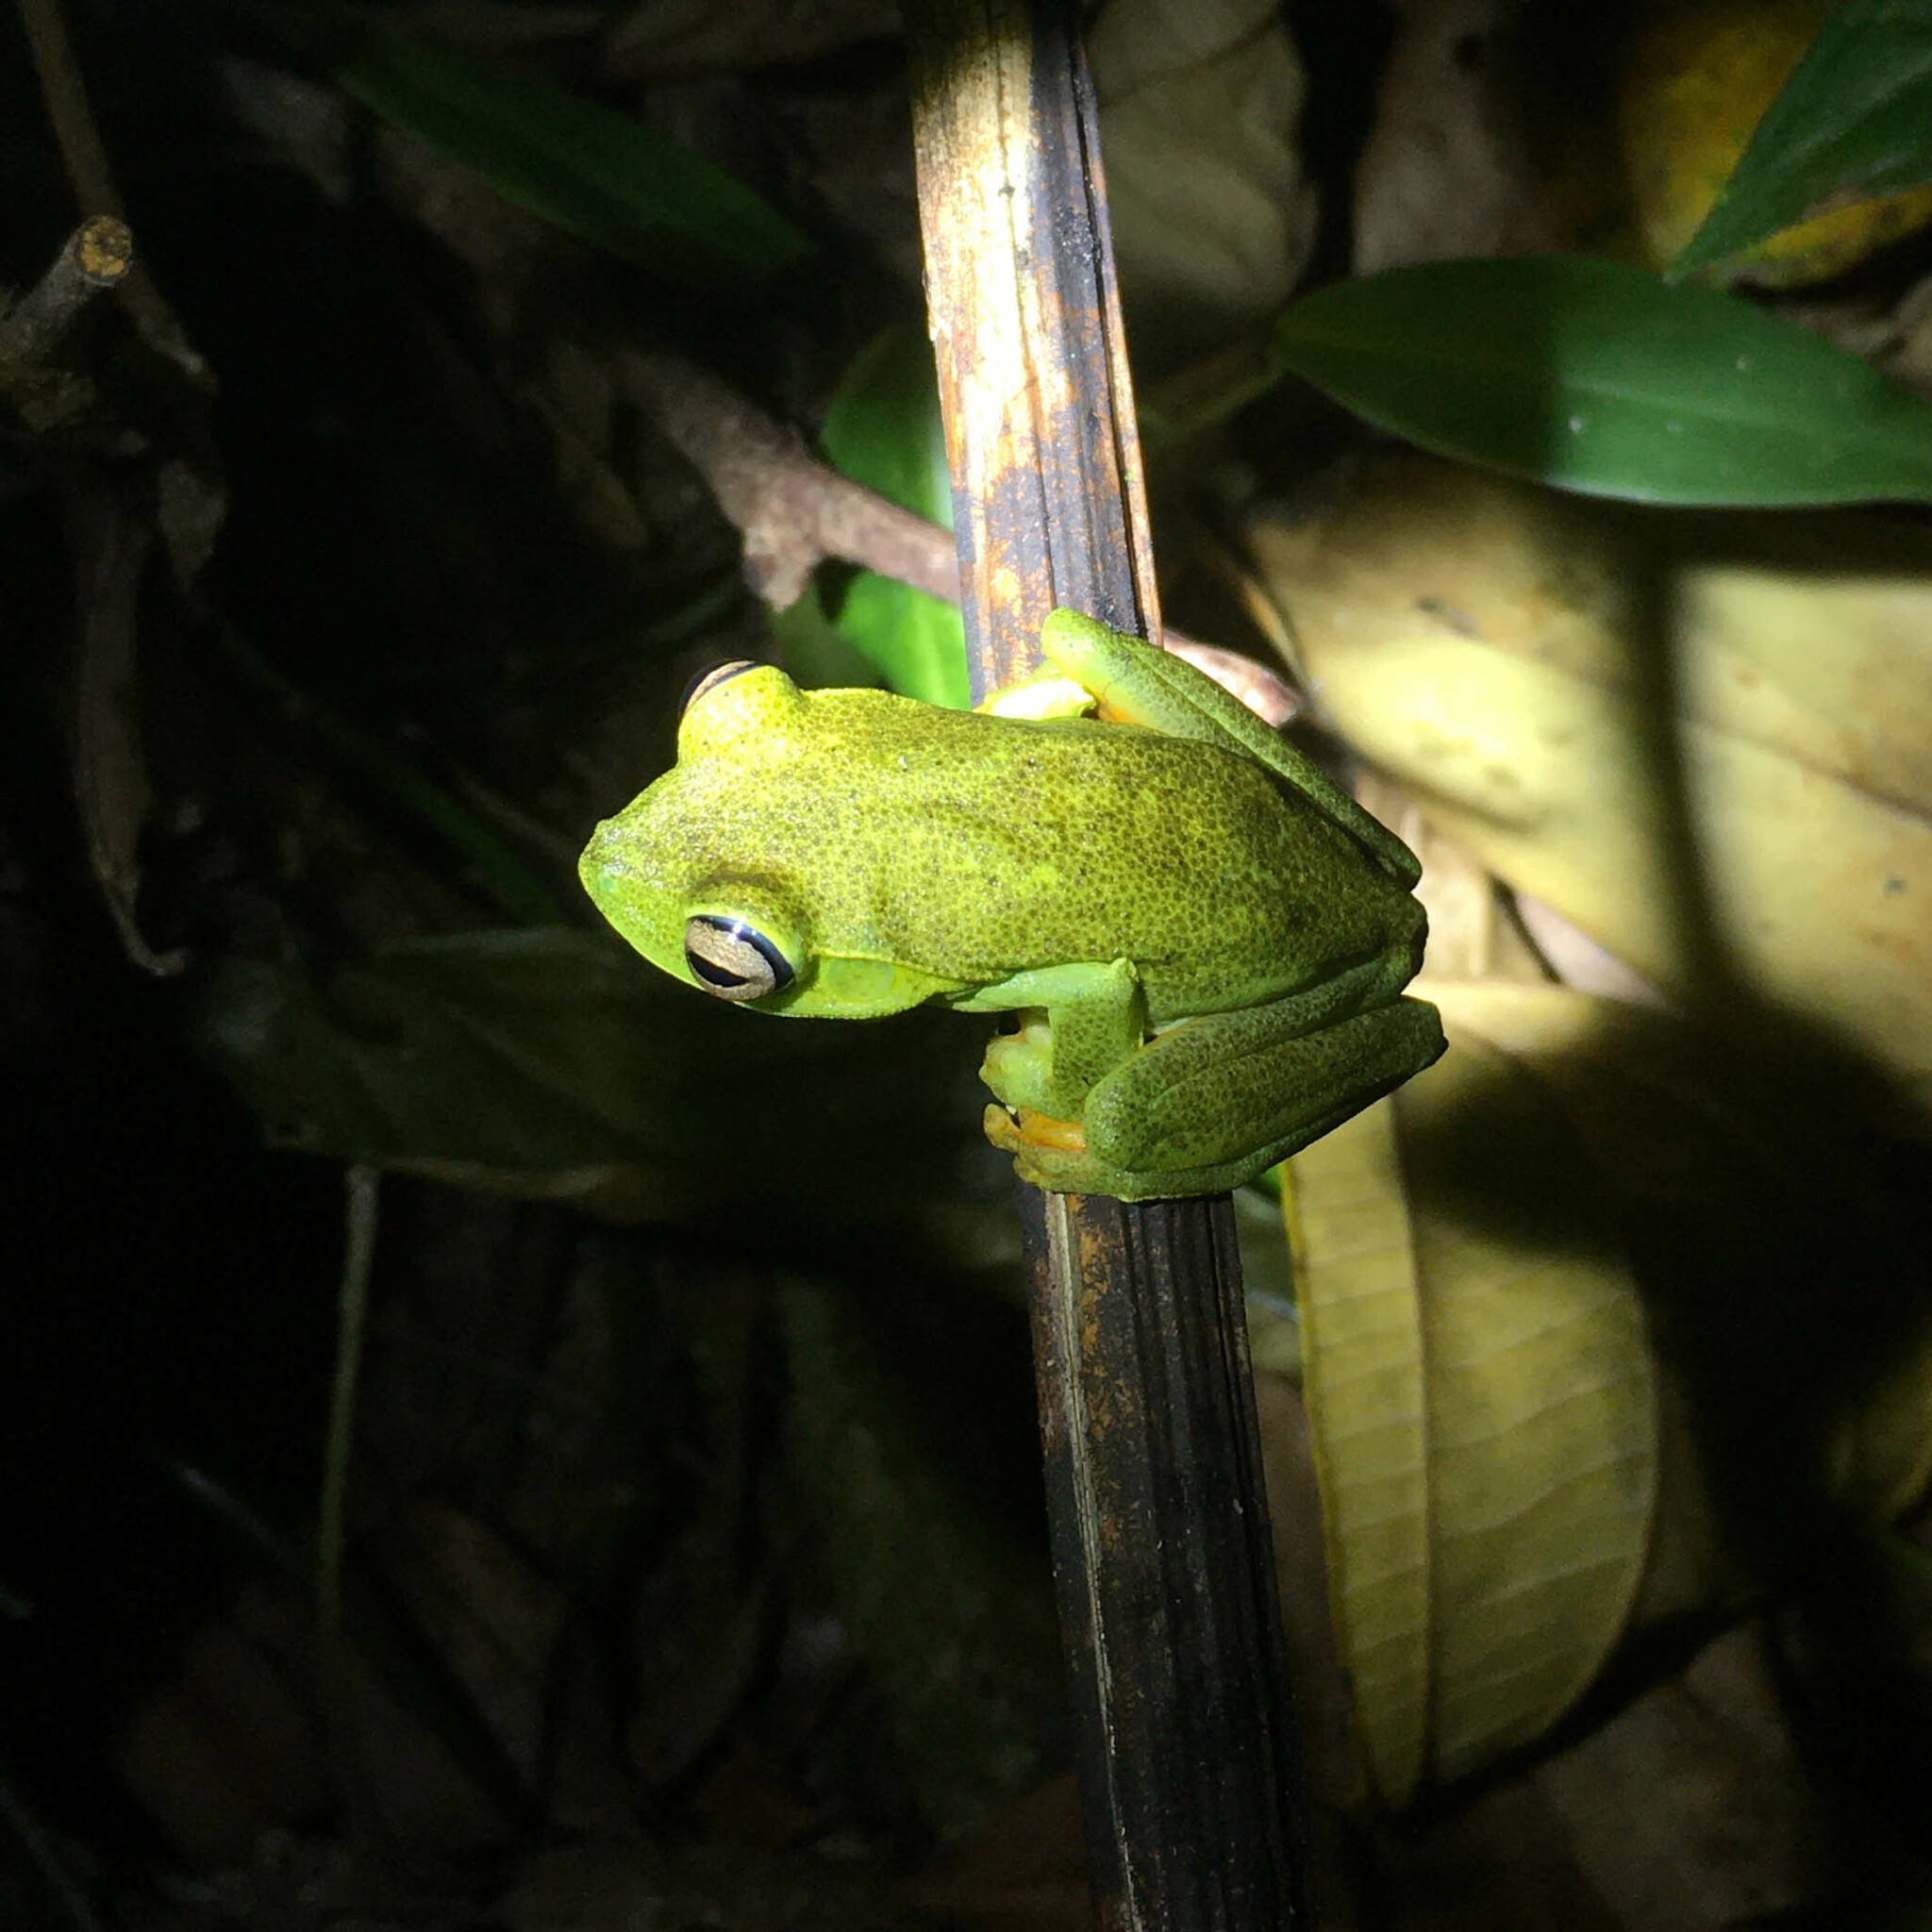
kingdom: Animalia
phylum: Chordata
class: Amphibia
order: Anura
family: Hylidae
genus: Boana
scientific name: Boana albomarginata
